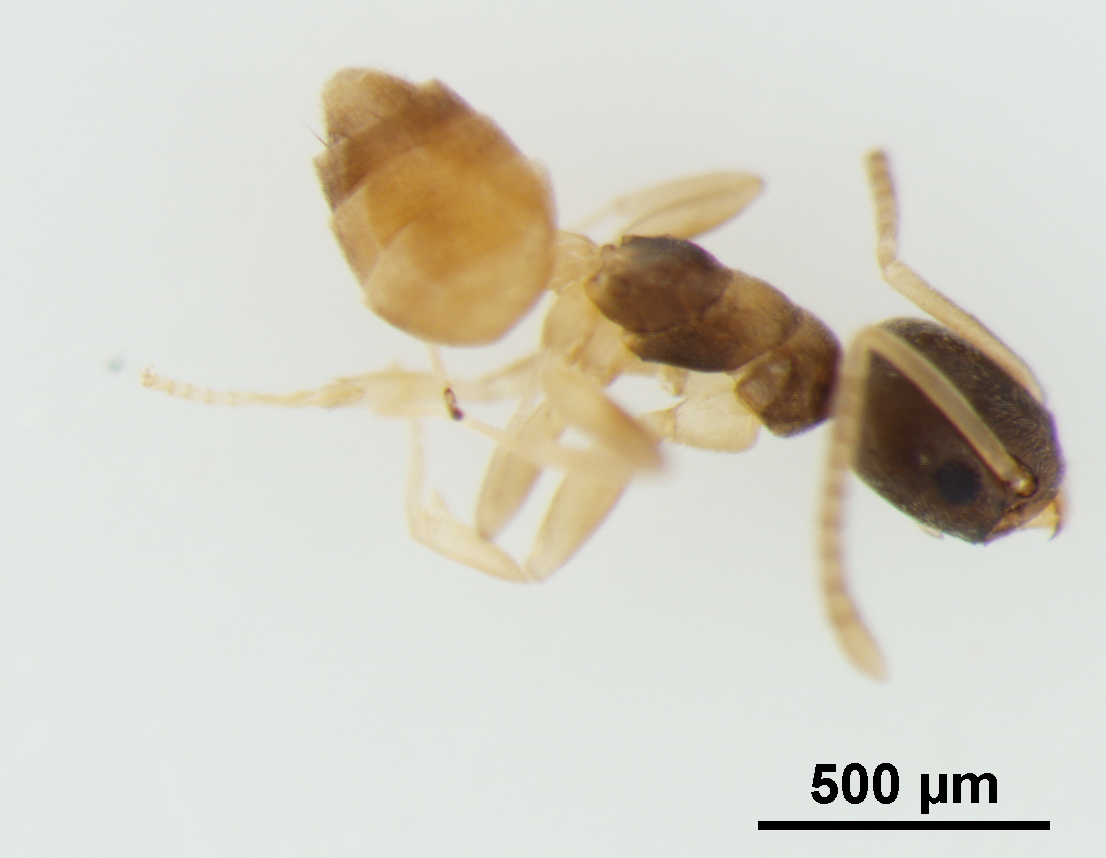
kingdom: Animalia
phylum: Arthropoda
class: Insecta
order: Hymenoptera
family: Formicidae
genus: Tapinoma
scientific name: Tapinoma melanocephalum
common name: Ghost ant
